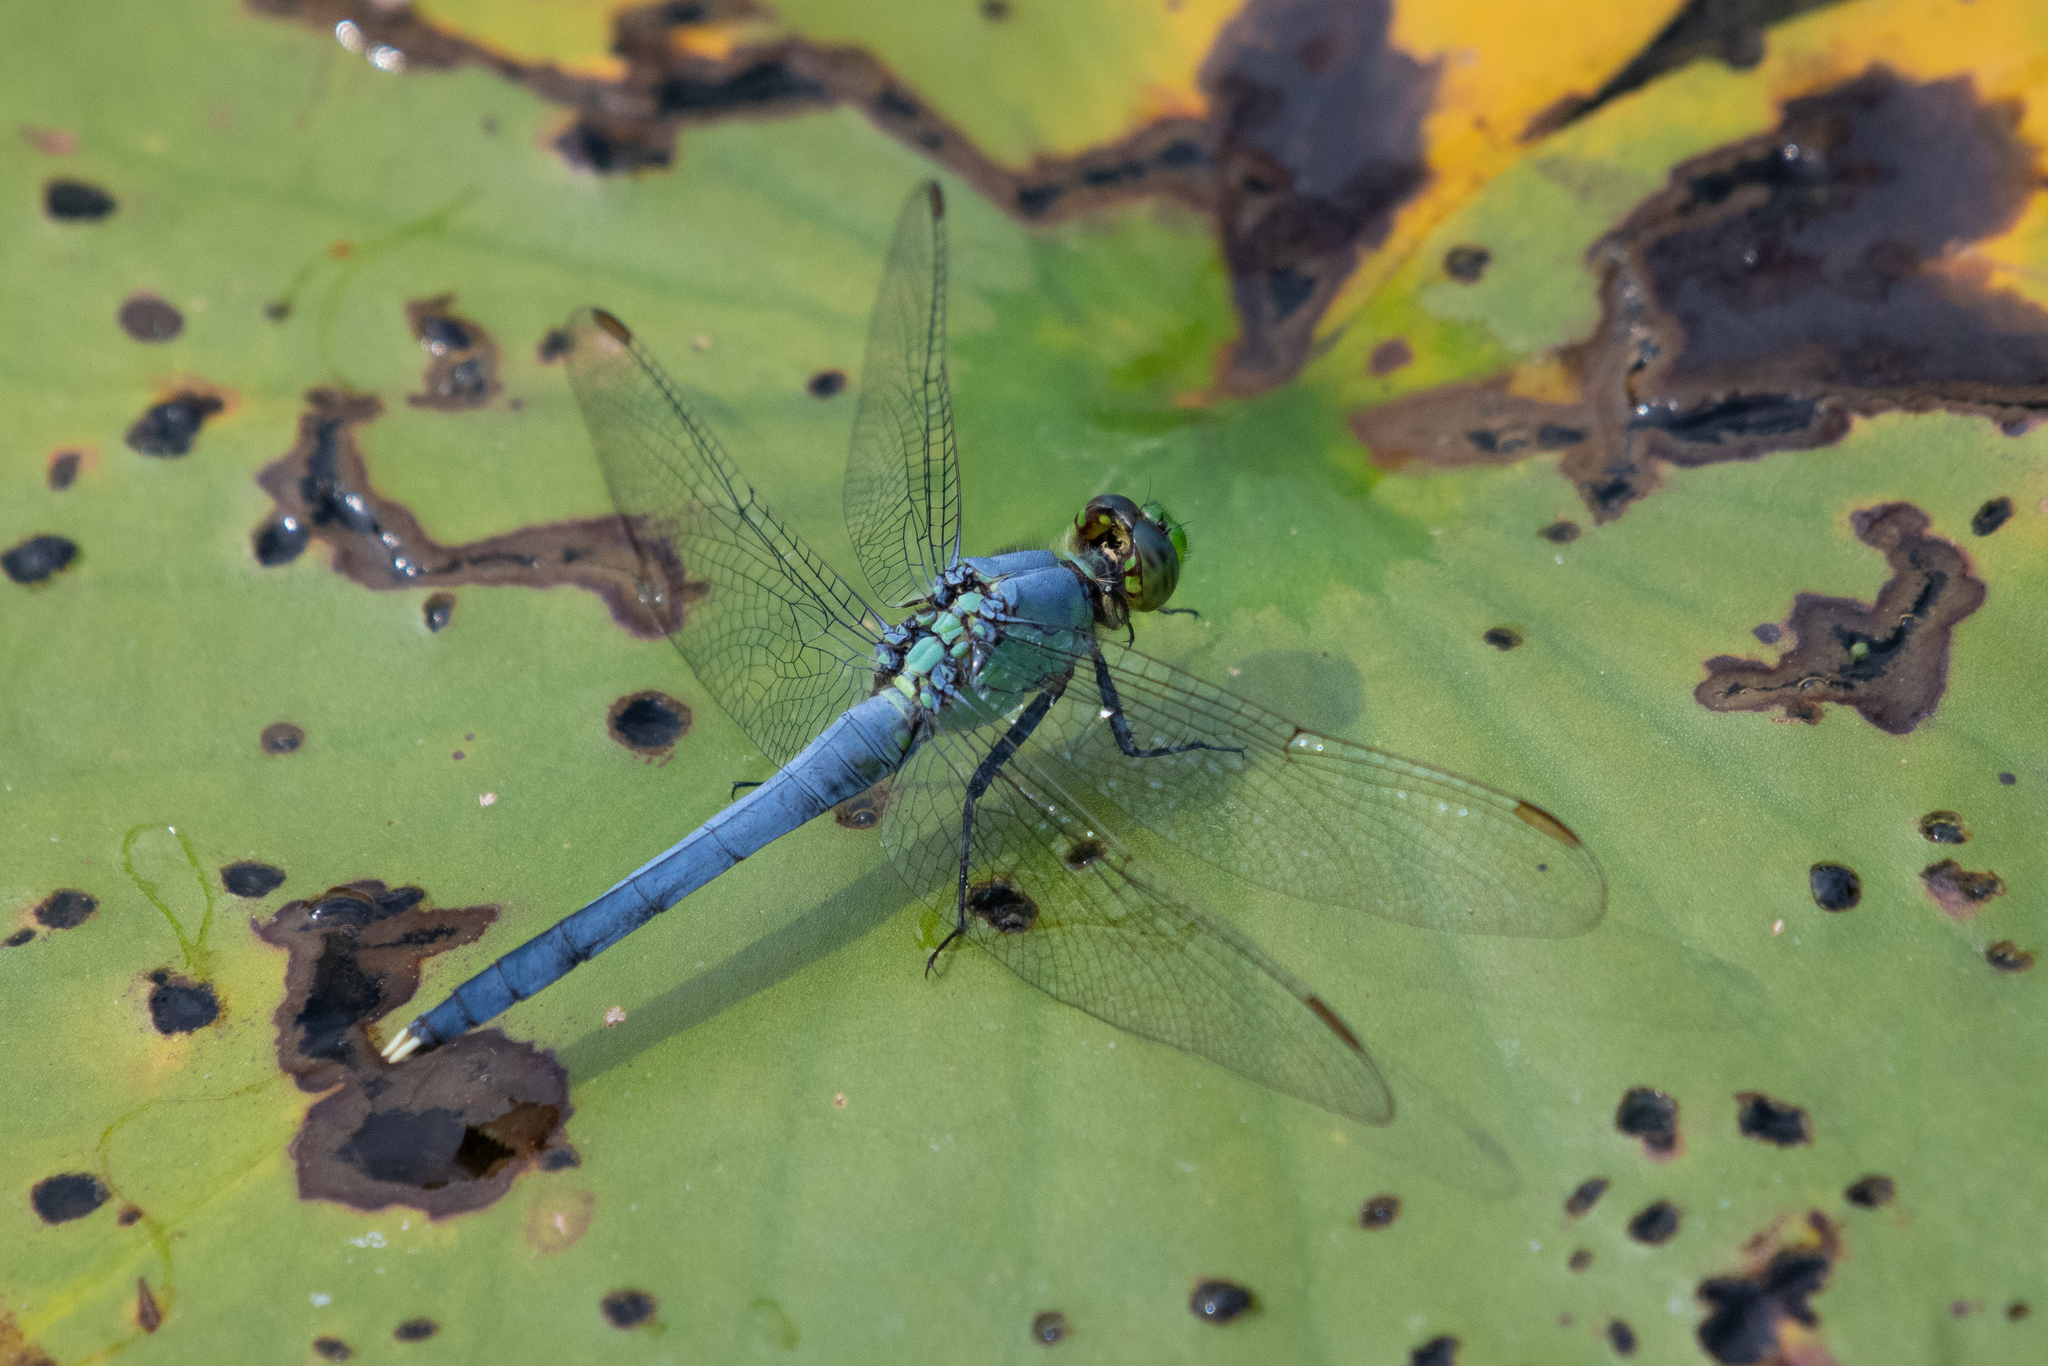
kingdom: Animalia
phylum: Arthropoda
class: Insecta
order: Odonata
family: Libellulidae
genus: Erythemis
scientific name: Erythemis simplicicollis
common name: Eastern pondhawk
